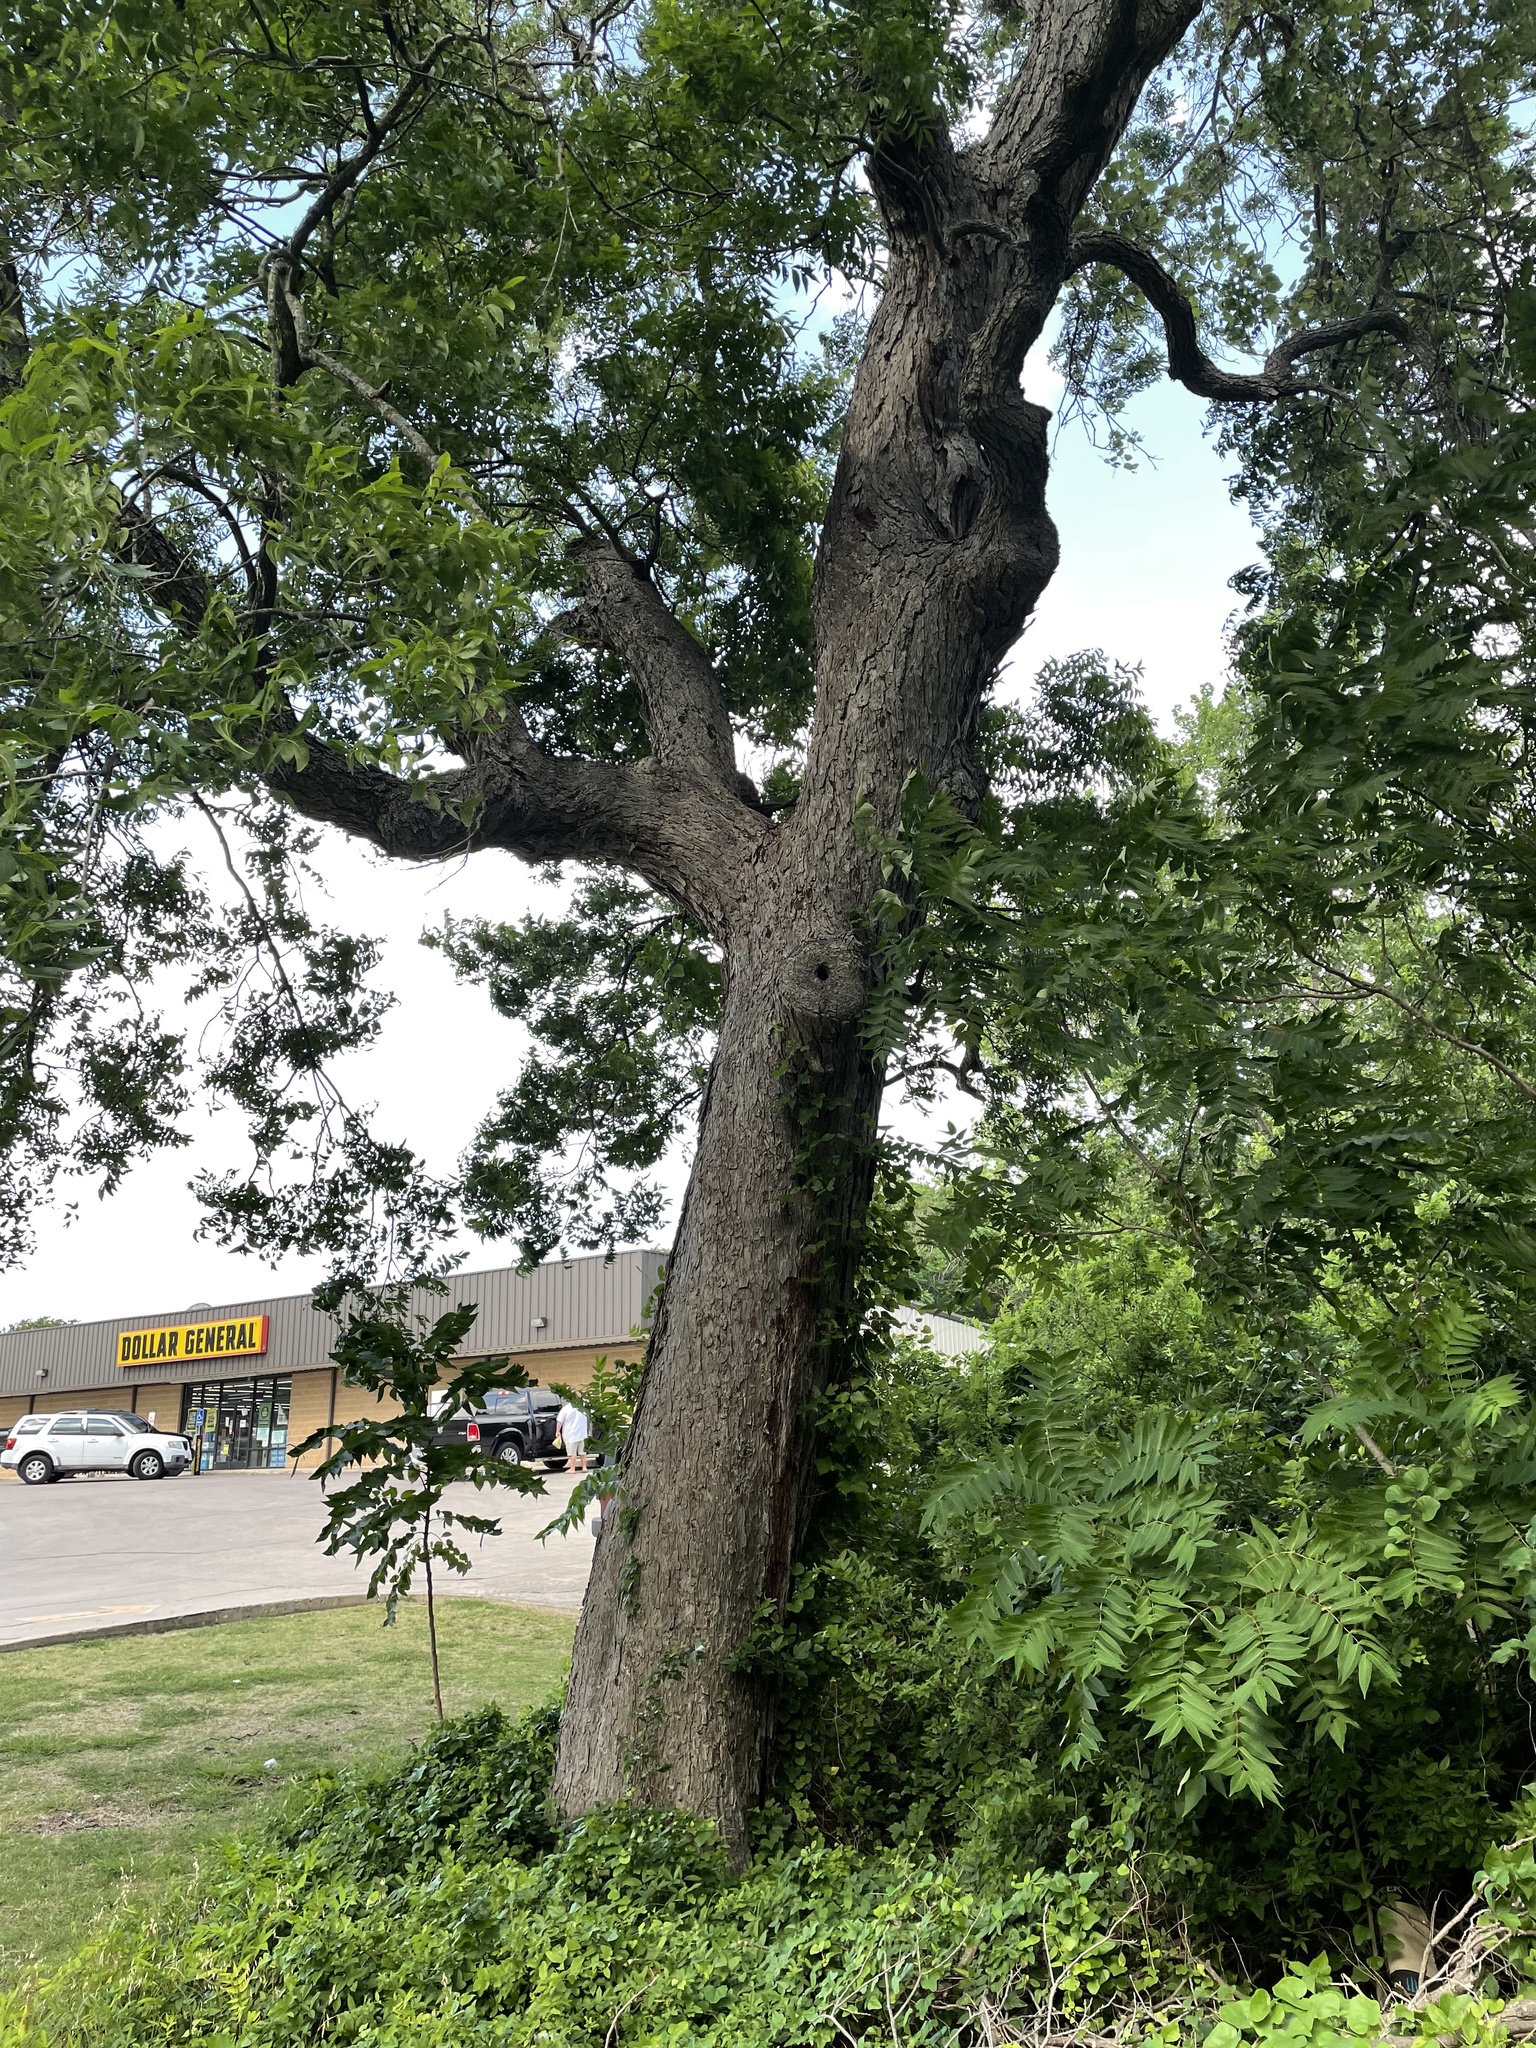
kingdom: Plantae
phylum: Tracheophyta
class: Magnoliopsida
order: Fagales
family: Juglandaceae
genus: Carya
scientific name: Carya illinoinensis
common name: Pecan
